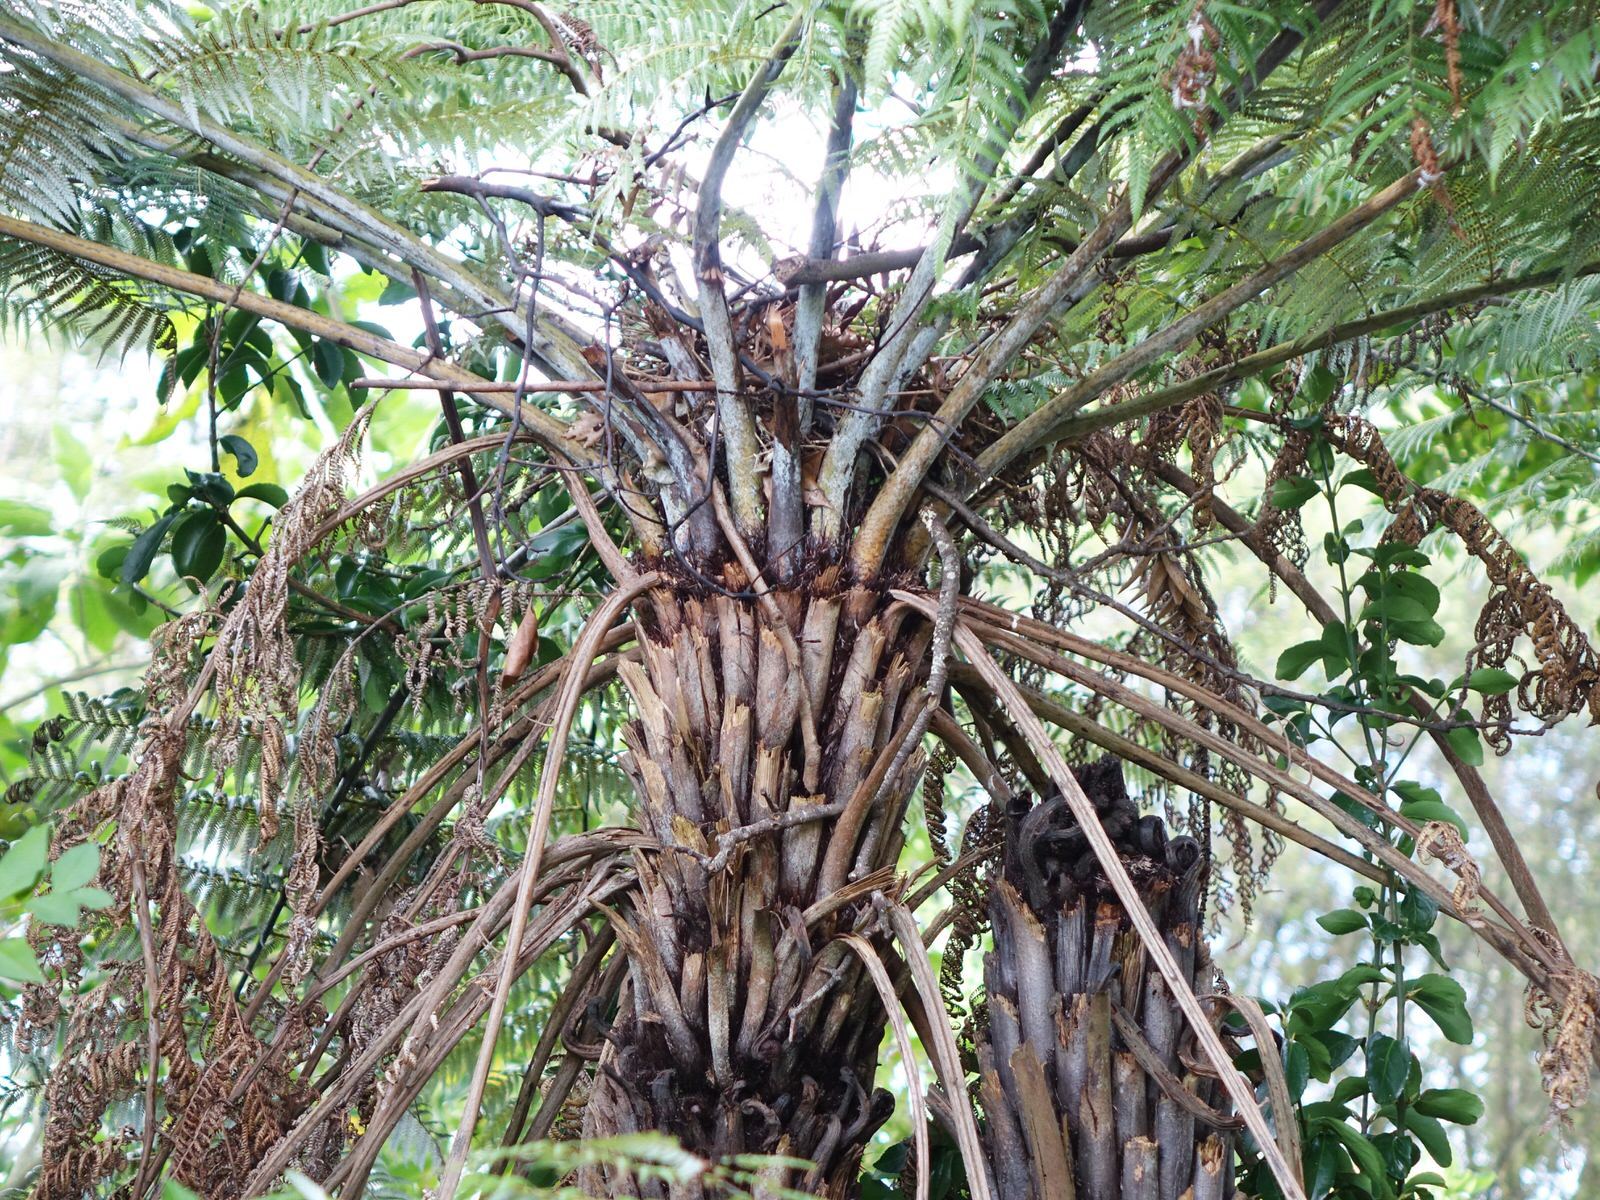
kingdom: Plantae
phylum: Tracheophyta
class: Polypodiopsida
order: Cyatheales
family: Cyatheaceae
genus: Alsophila
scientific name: Alsophila dealbata
